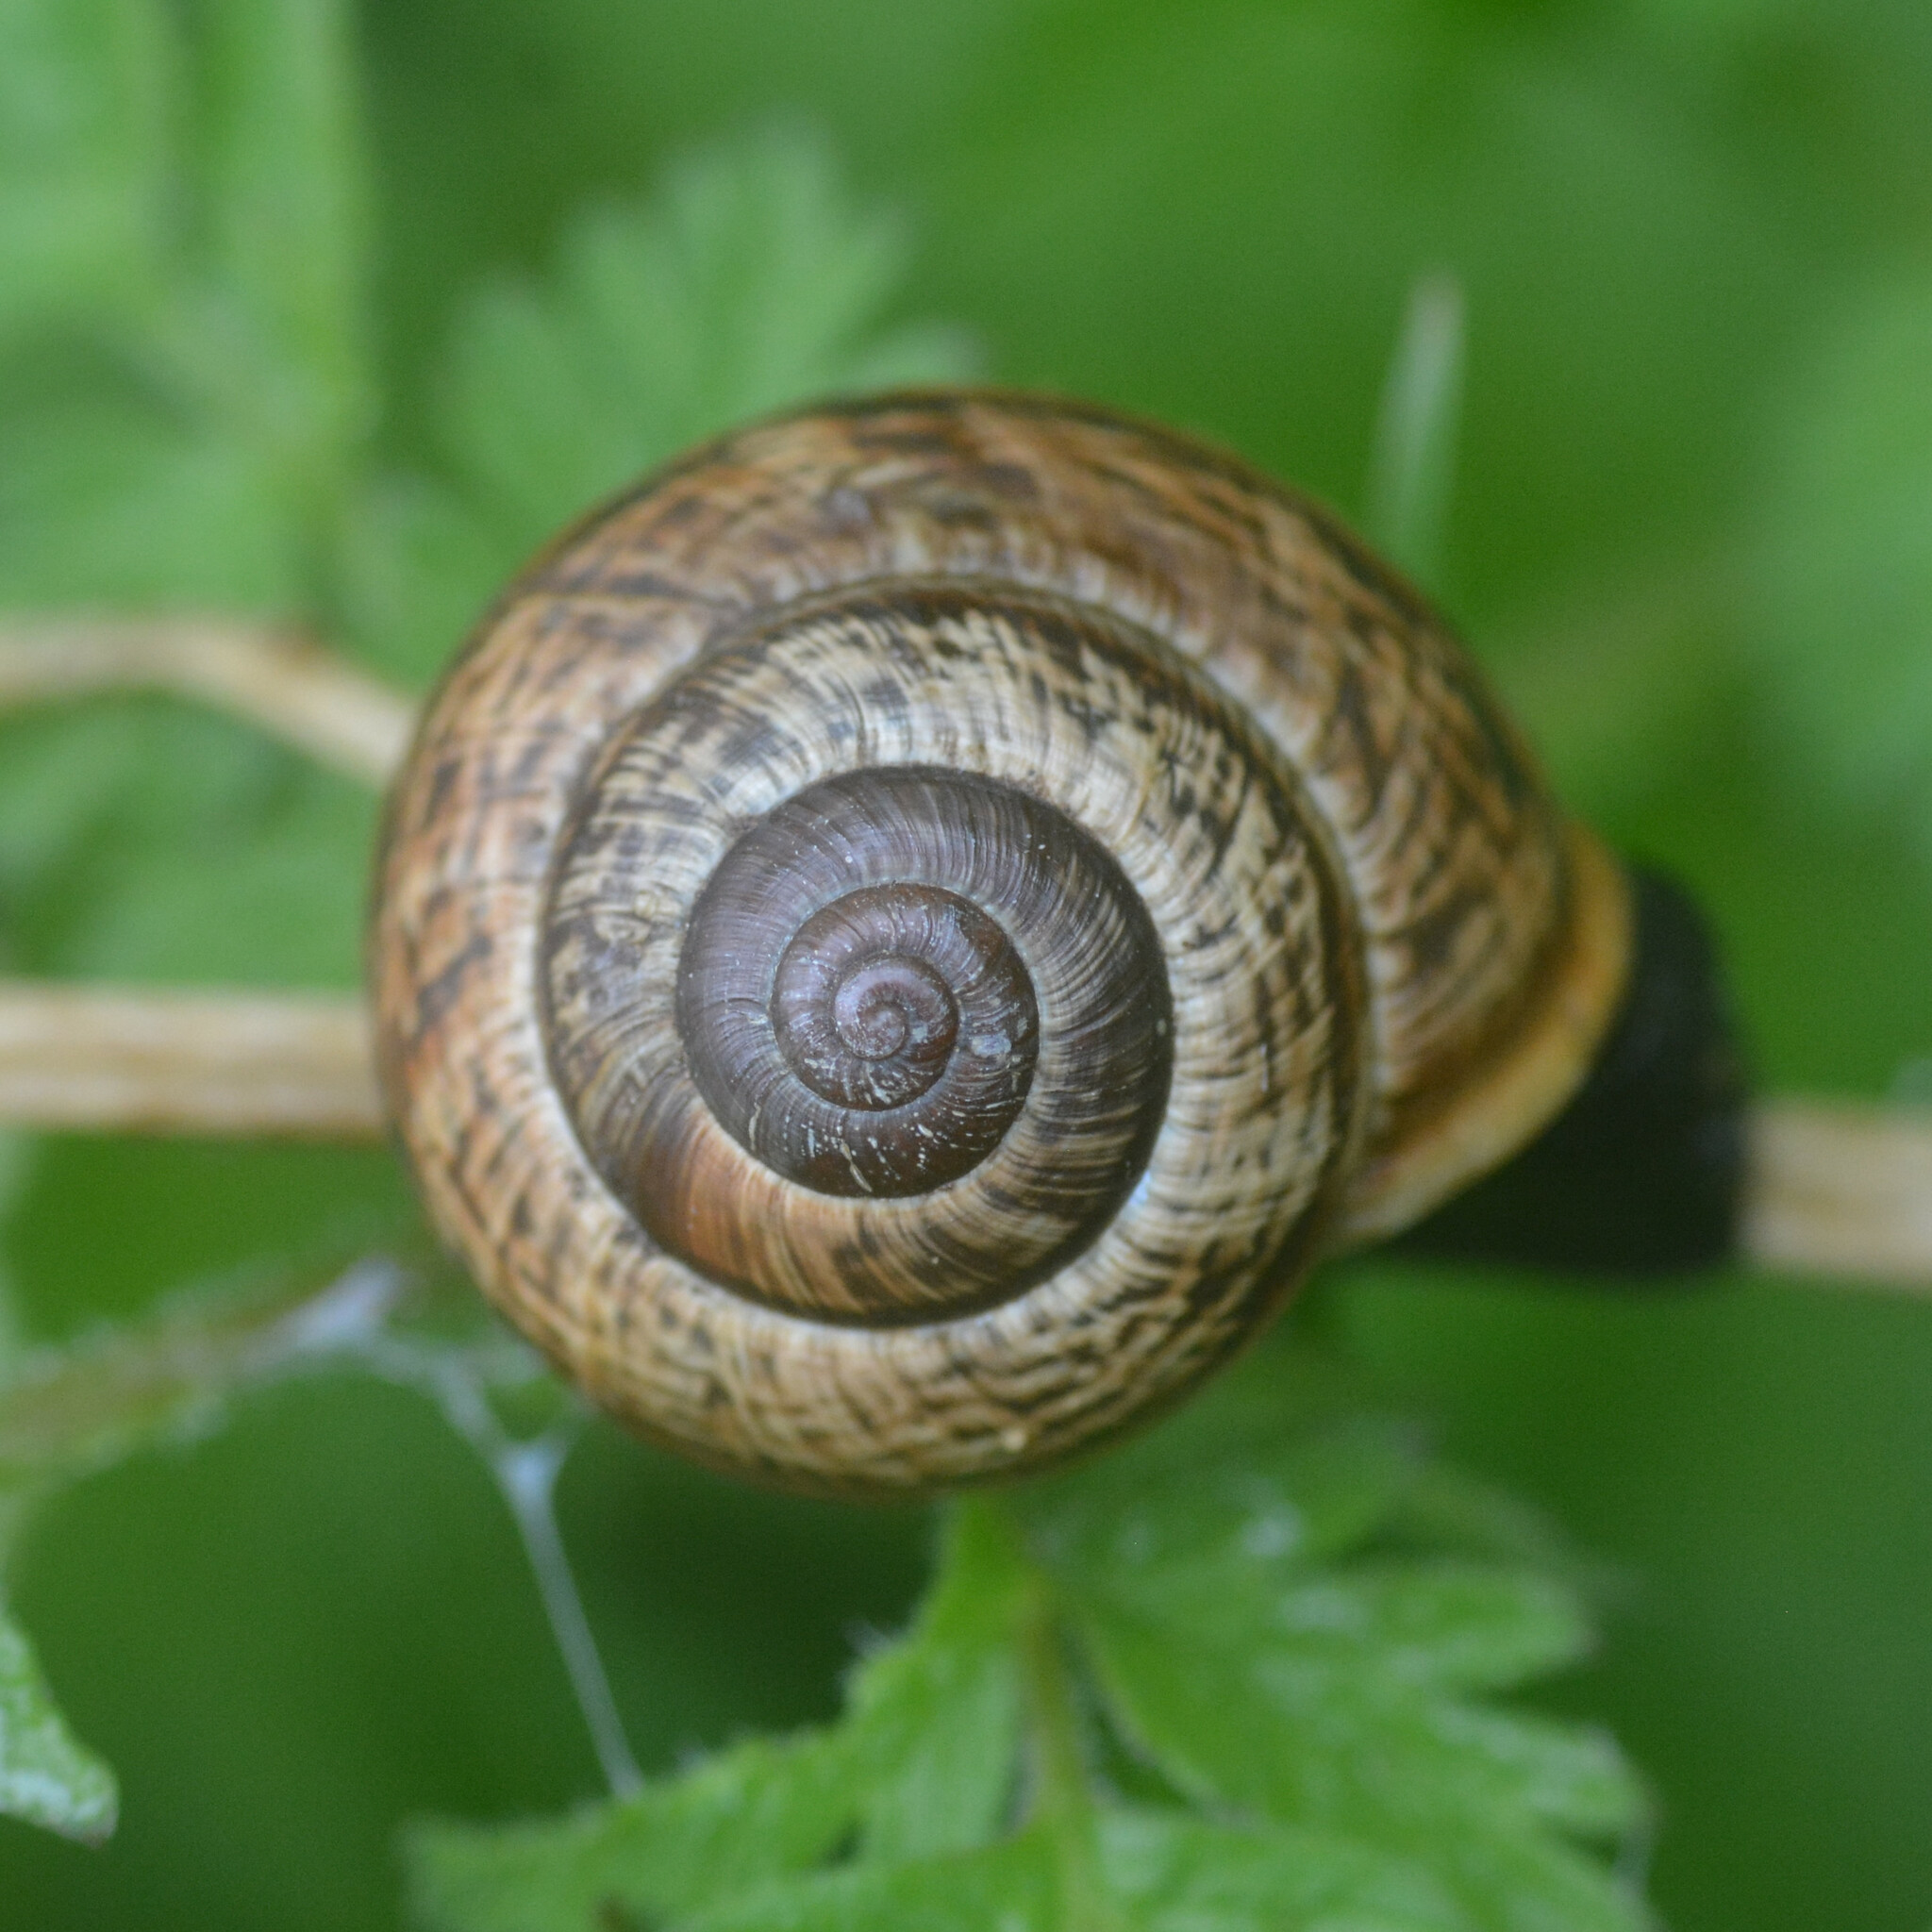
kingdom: Animalia
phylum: Mollusca
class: Gastropoda
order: Stylommatophora
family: Helicidae
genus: Arianta
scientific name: Arianta arbustorum
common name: Copse snail
